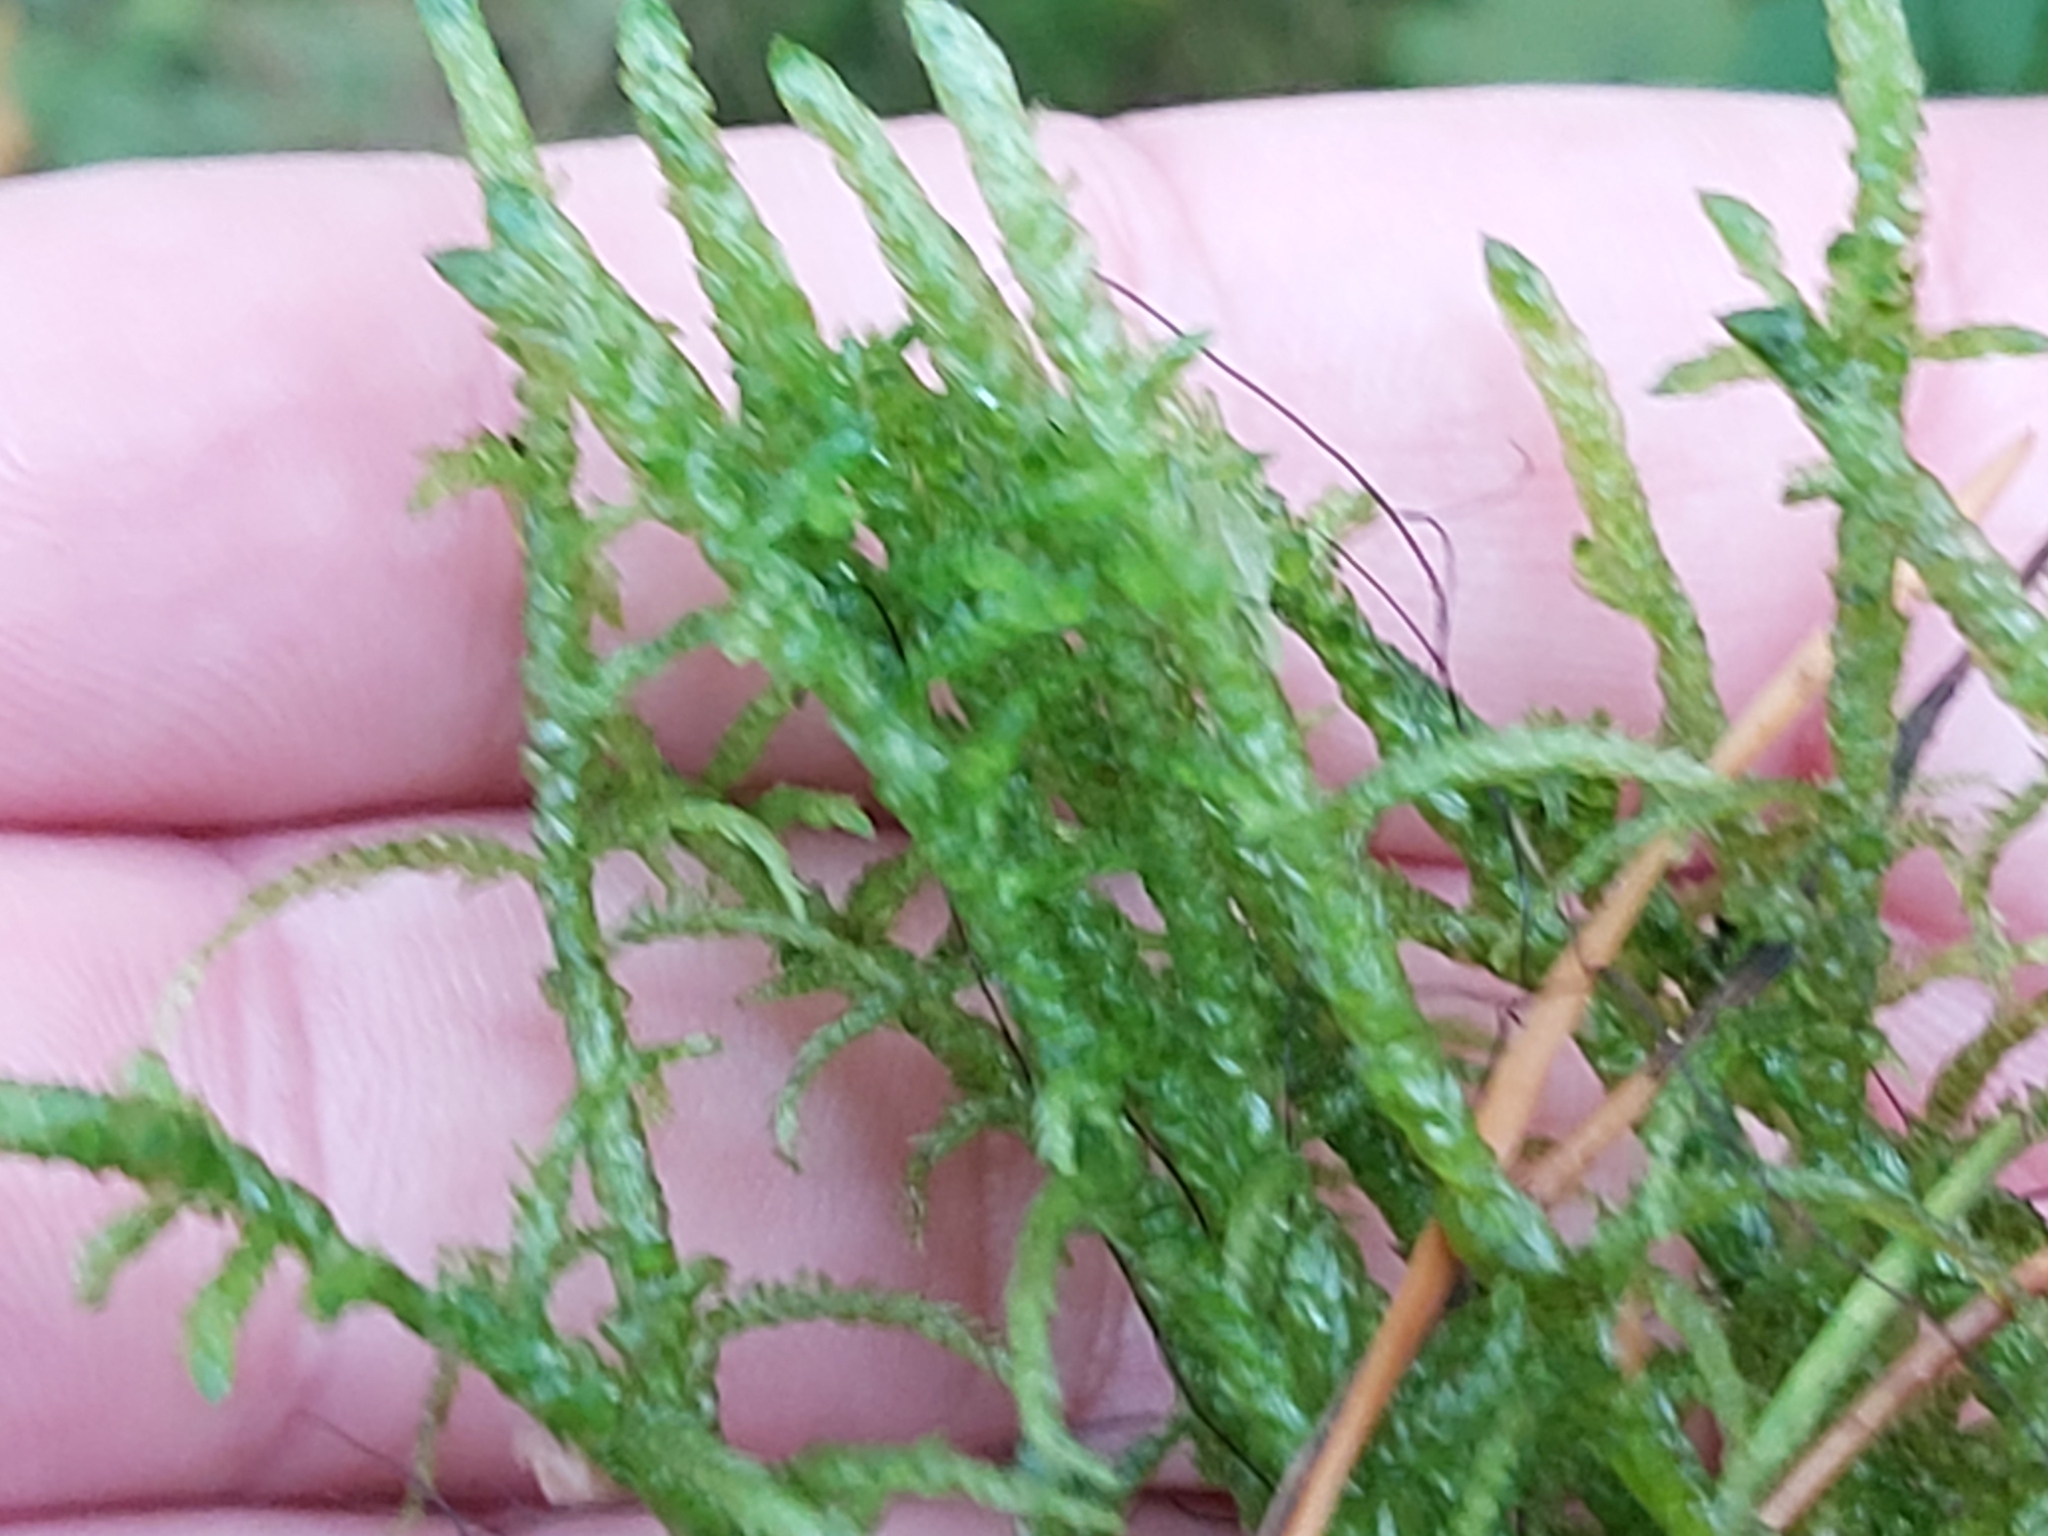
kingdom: Plantae
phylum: Bryophyta
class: Bryopsida
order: Hypnales
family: Brachytheciaceae
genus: Pseudoscleropodium
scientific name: Pseudoscleropodium purum
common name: Neat feather-moss
